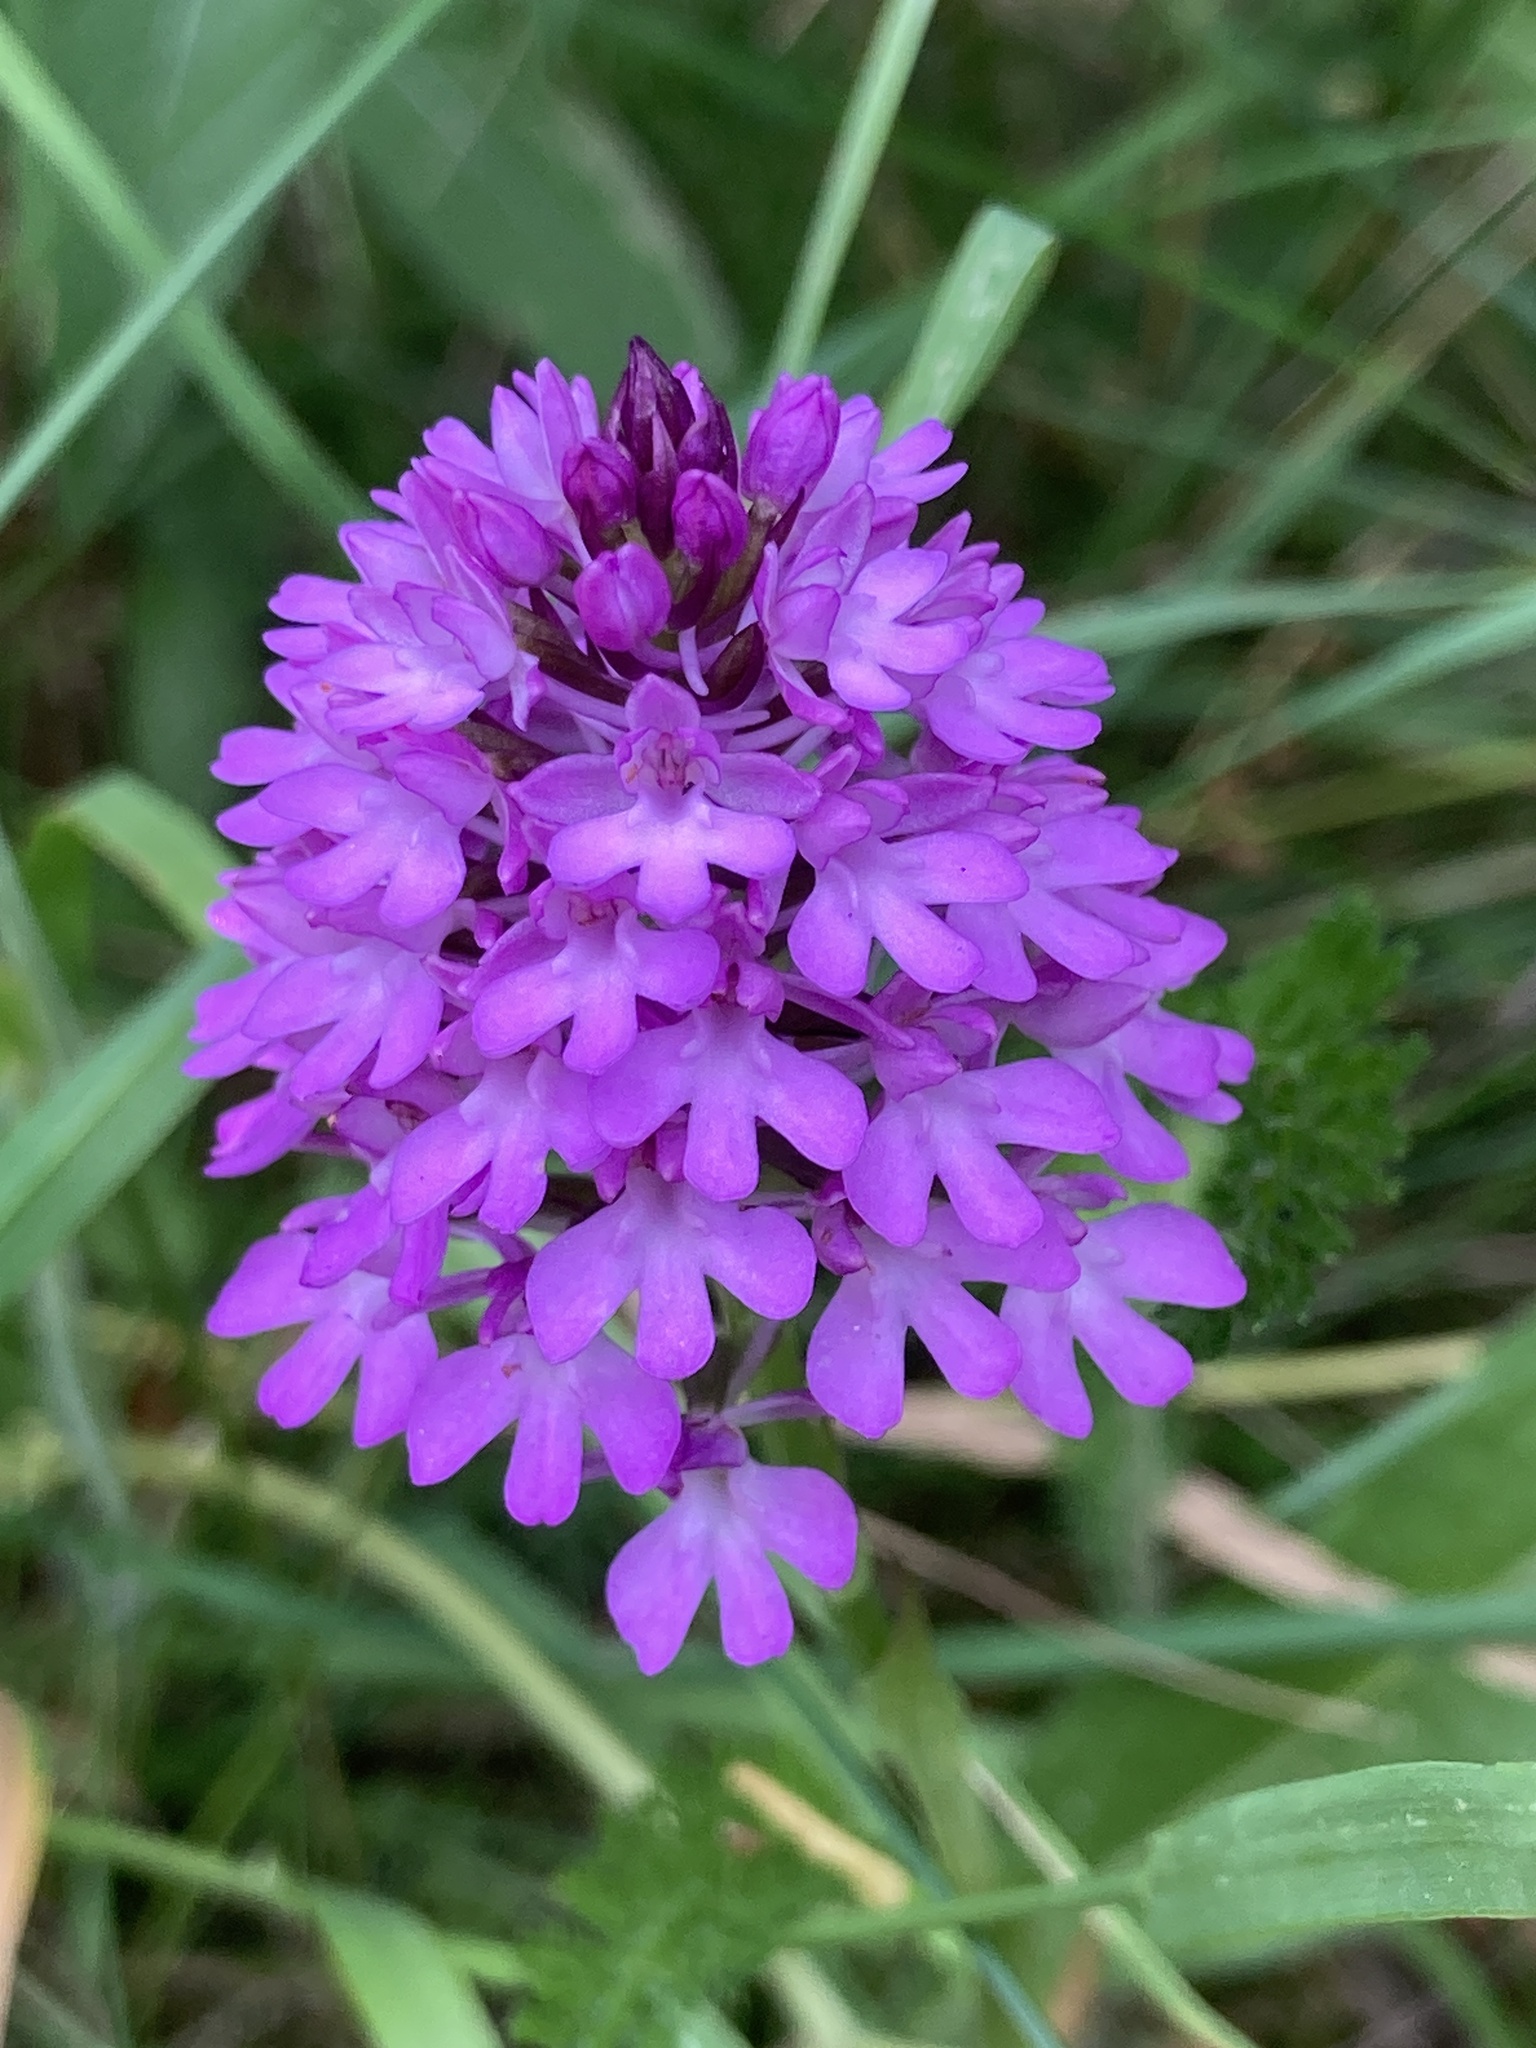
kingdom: Plantae
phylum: Tracheophyta
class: Liliopsida
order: Asparagales
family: Orchidaceae
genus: Anacamptis
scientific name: Anacamptis pyramidalis
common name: Pyramidal orchid
